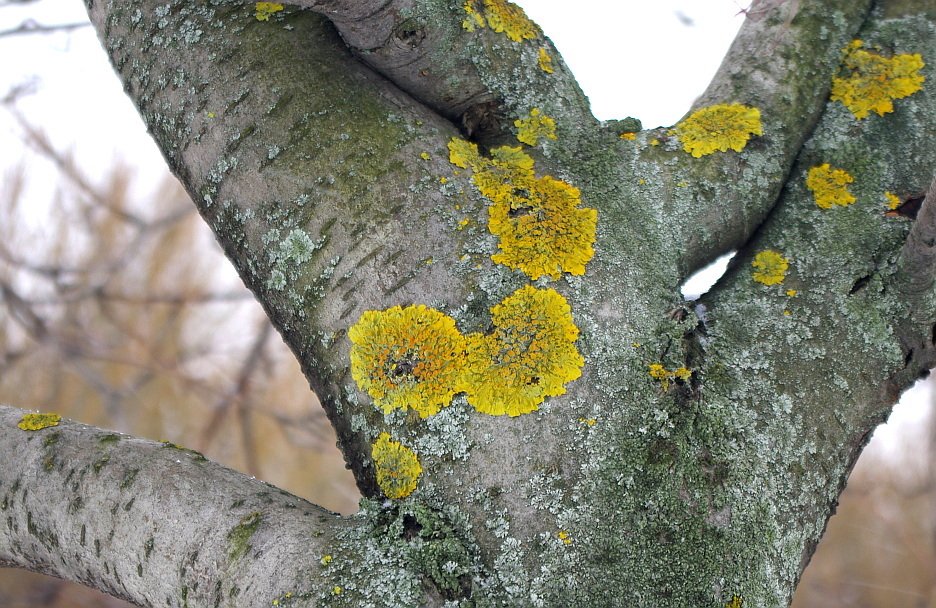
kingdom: Fungi
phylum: Ascomycota
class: Lecanoromycetes
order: Teloschistales
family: Teloschistaceae
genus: Xanthoria
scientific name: Xanthoria parietina
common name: Common orange lichen
